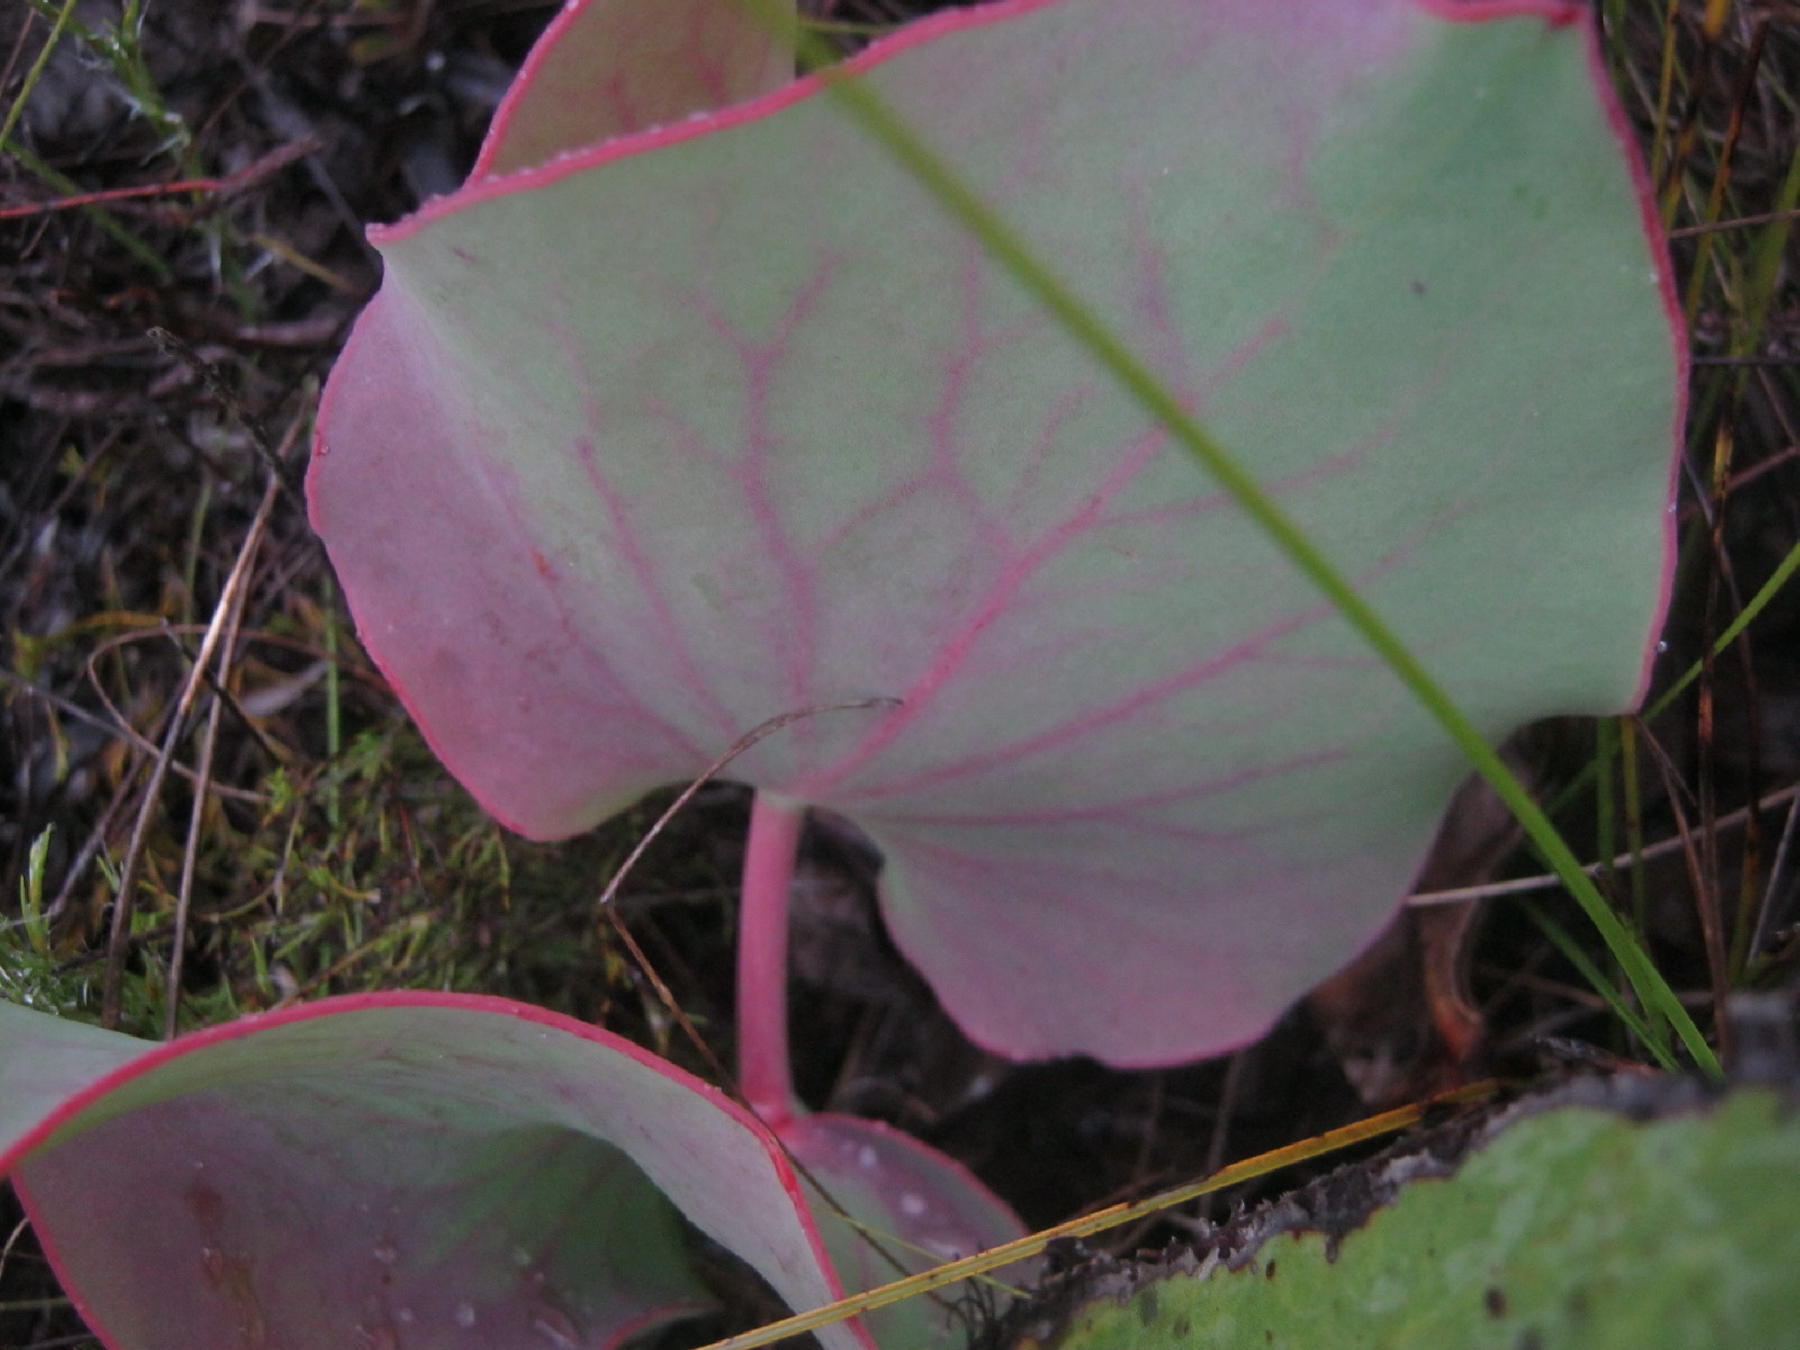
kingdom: Plantae
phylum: Tracheophyta
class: Magnoliopsida
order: Proteales
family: Proteaceae
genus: Protea
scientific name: Protea cordata
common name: Heart-leaf sugarbush
